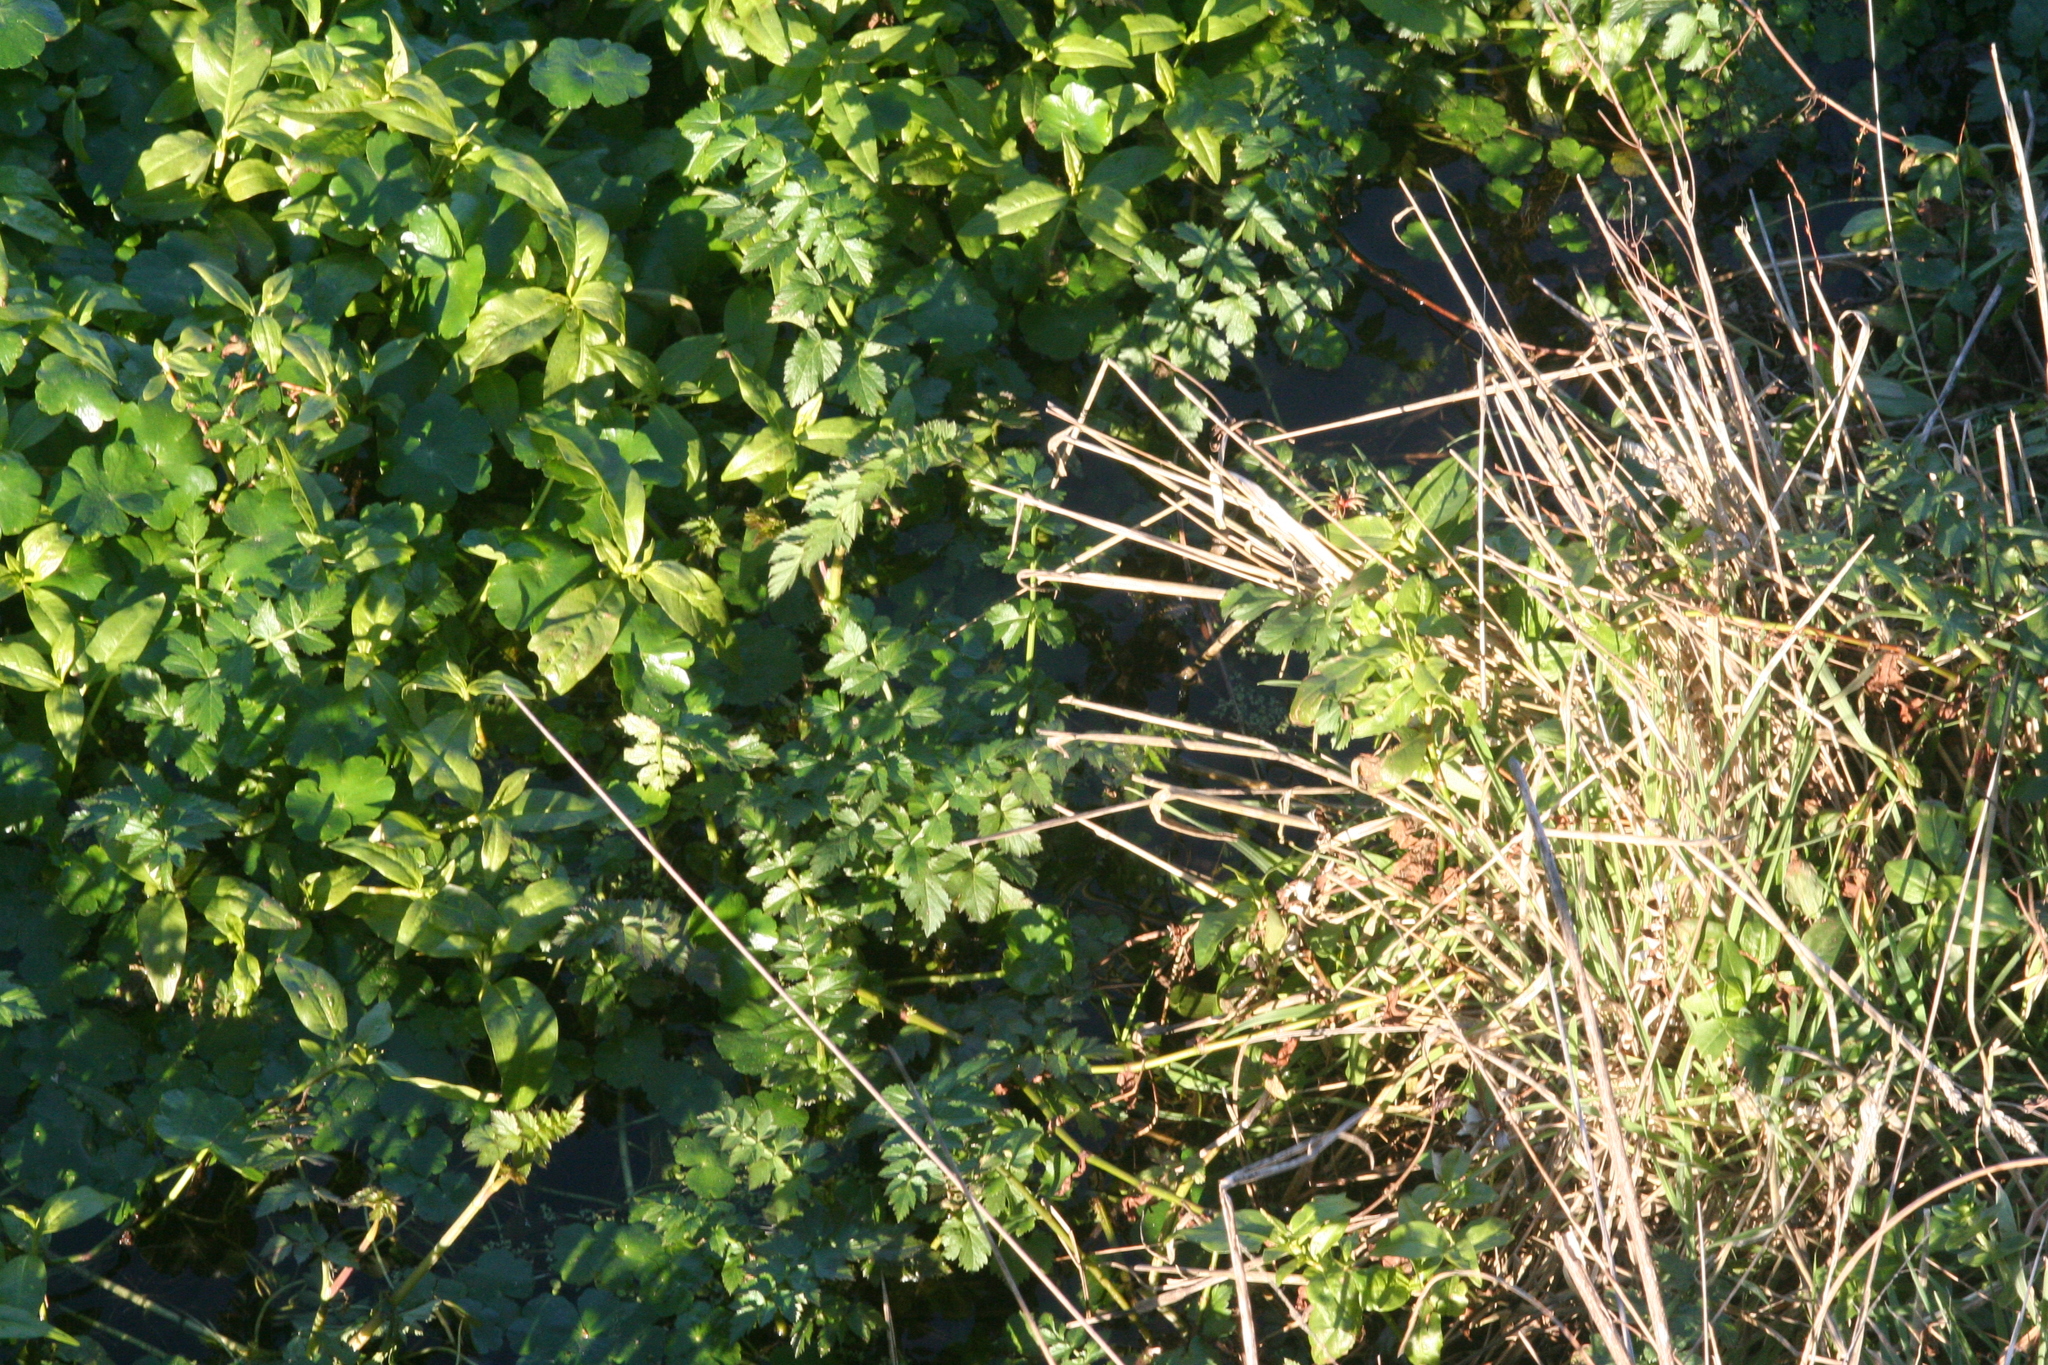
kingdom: Plantae
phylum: Tracheophyta
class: Magnoliopsida
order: Apiales
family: Apiaceae
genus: Oenanthe
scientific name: Oenanthe sarmentosa
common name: American water-parsley
